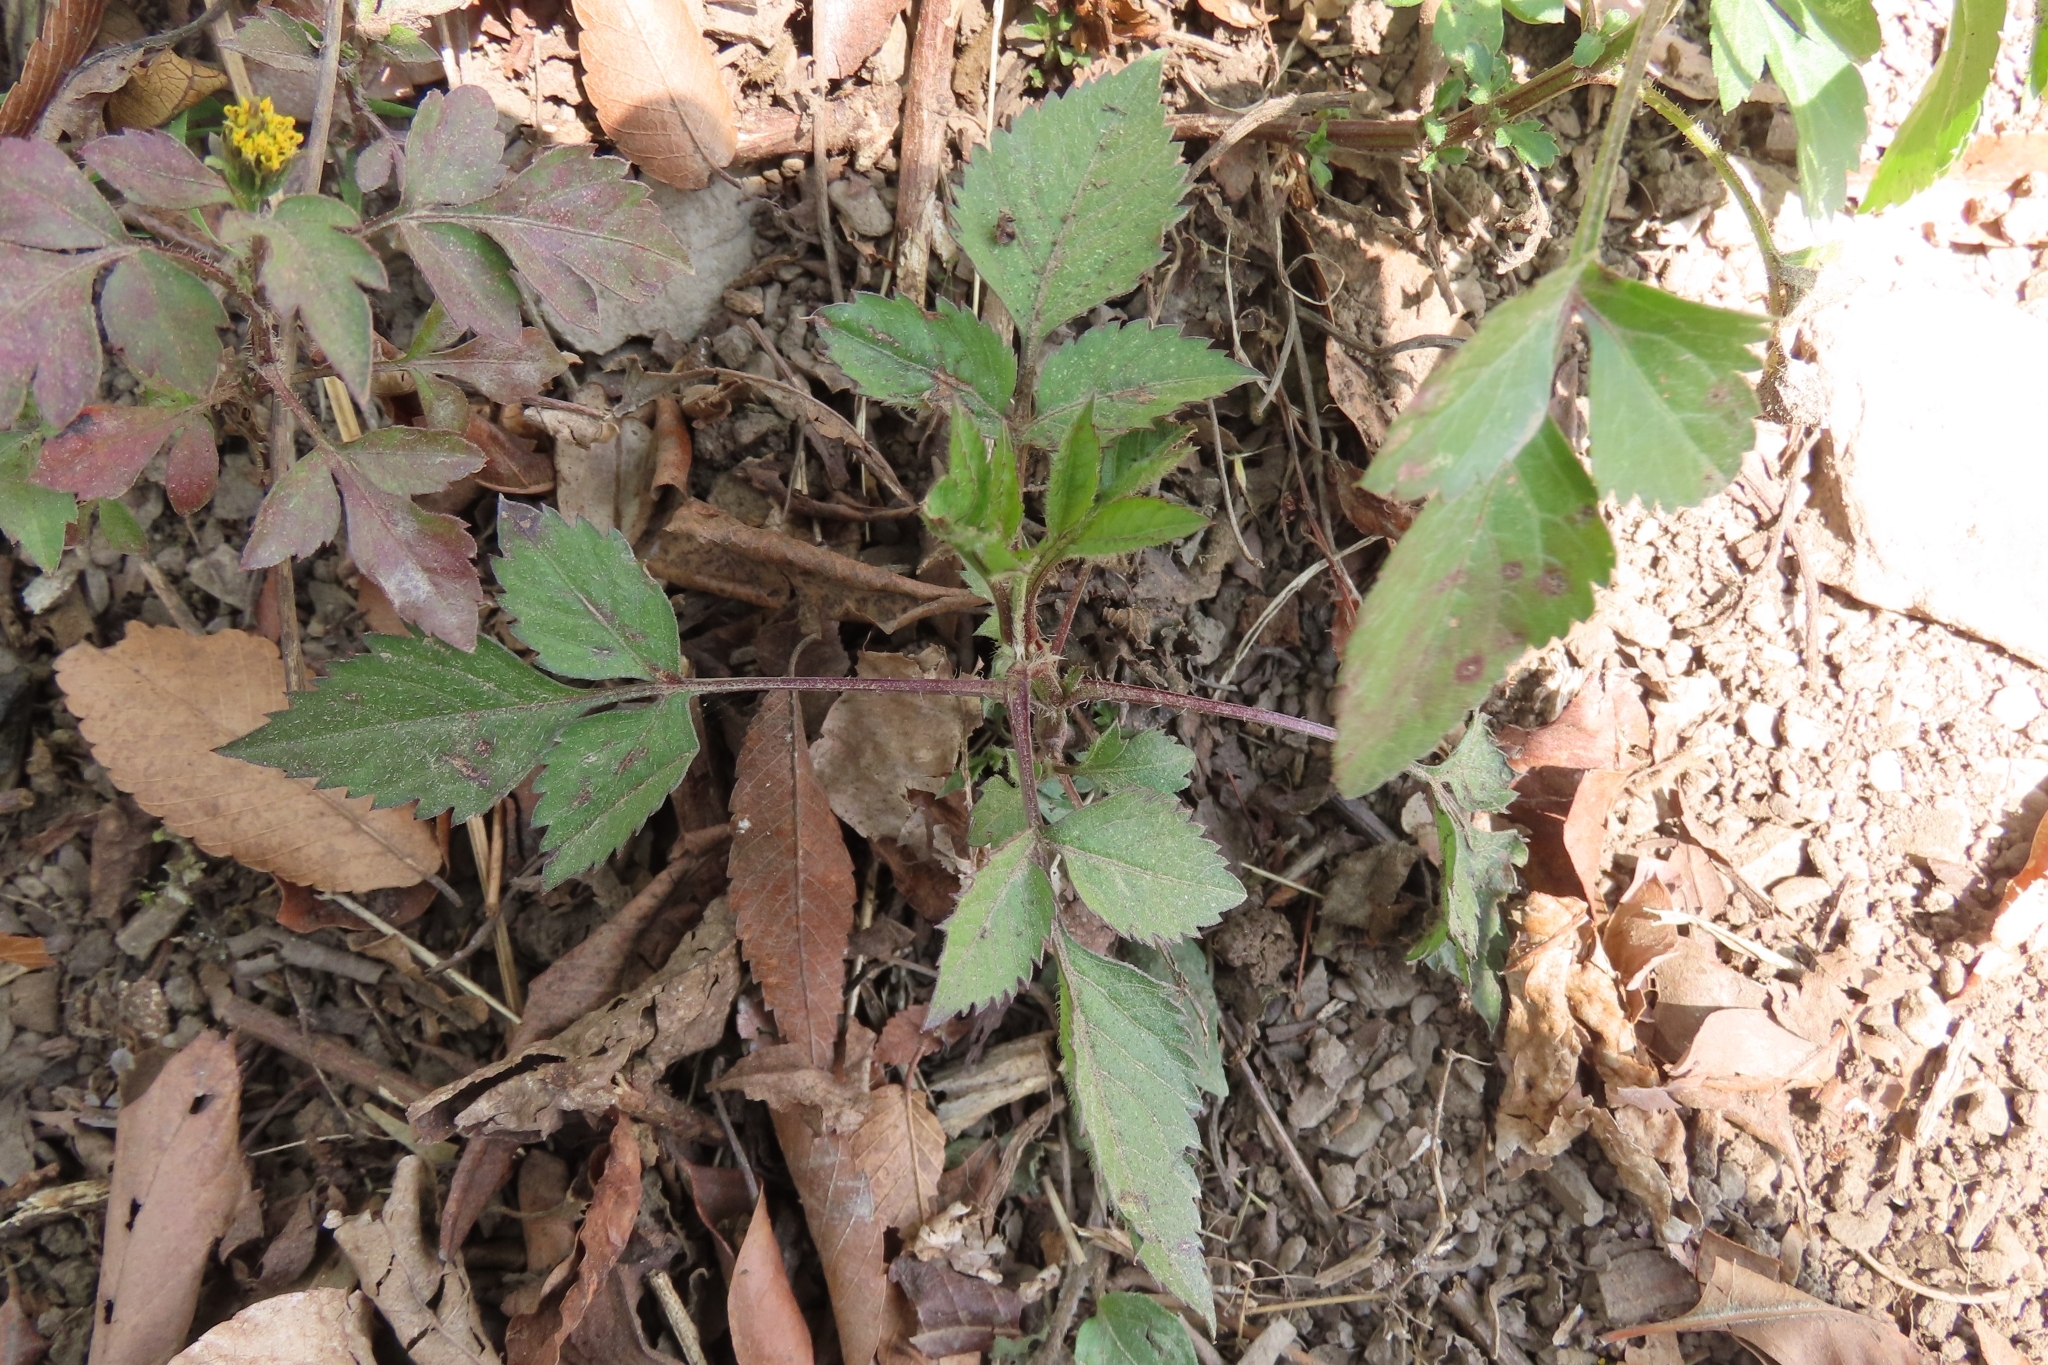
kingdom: Plantae
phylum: Tracheophyta
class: Magnoliopsida
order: Asterales
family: Asteraceae
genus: Bidens
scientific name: Bidens pilosa
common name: Black-jack
